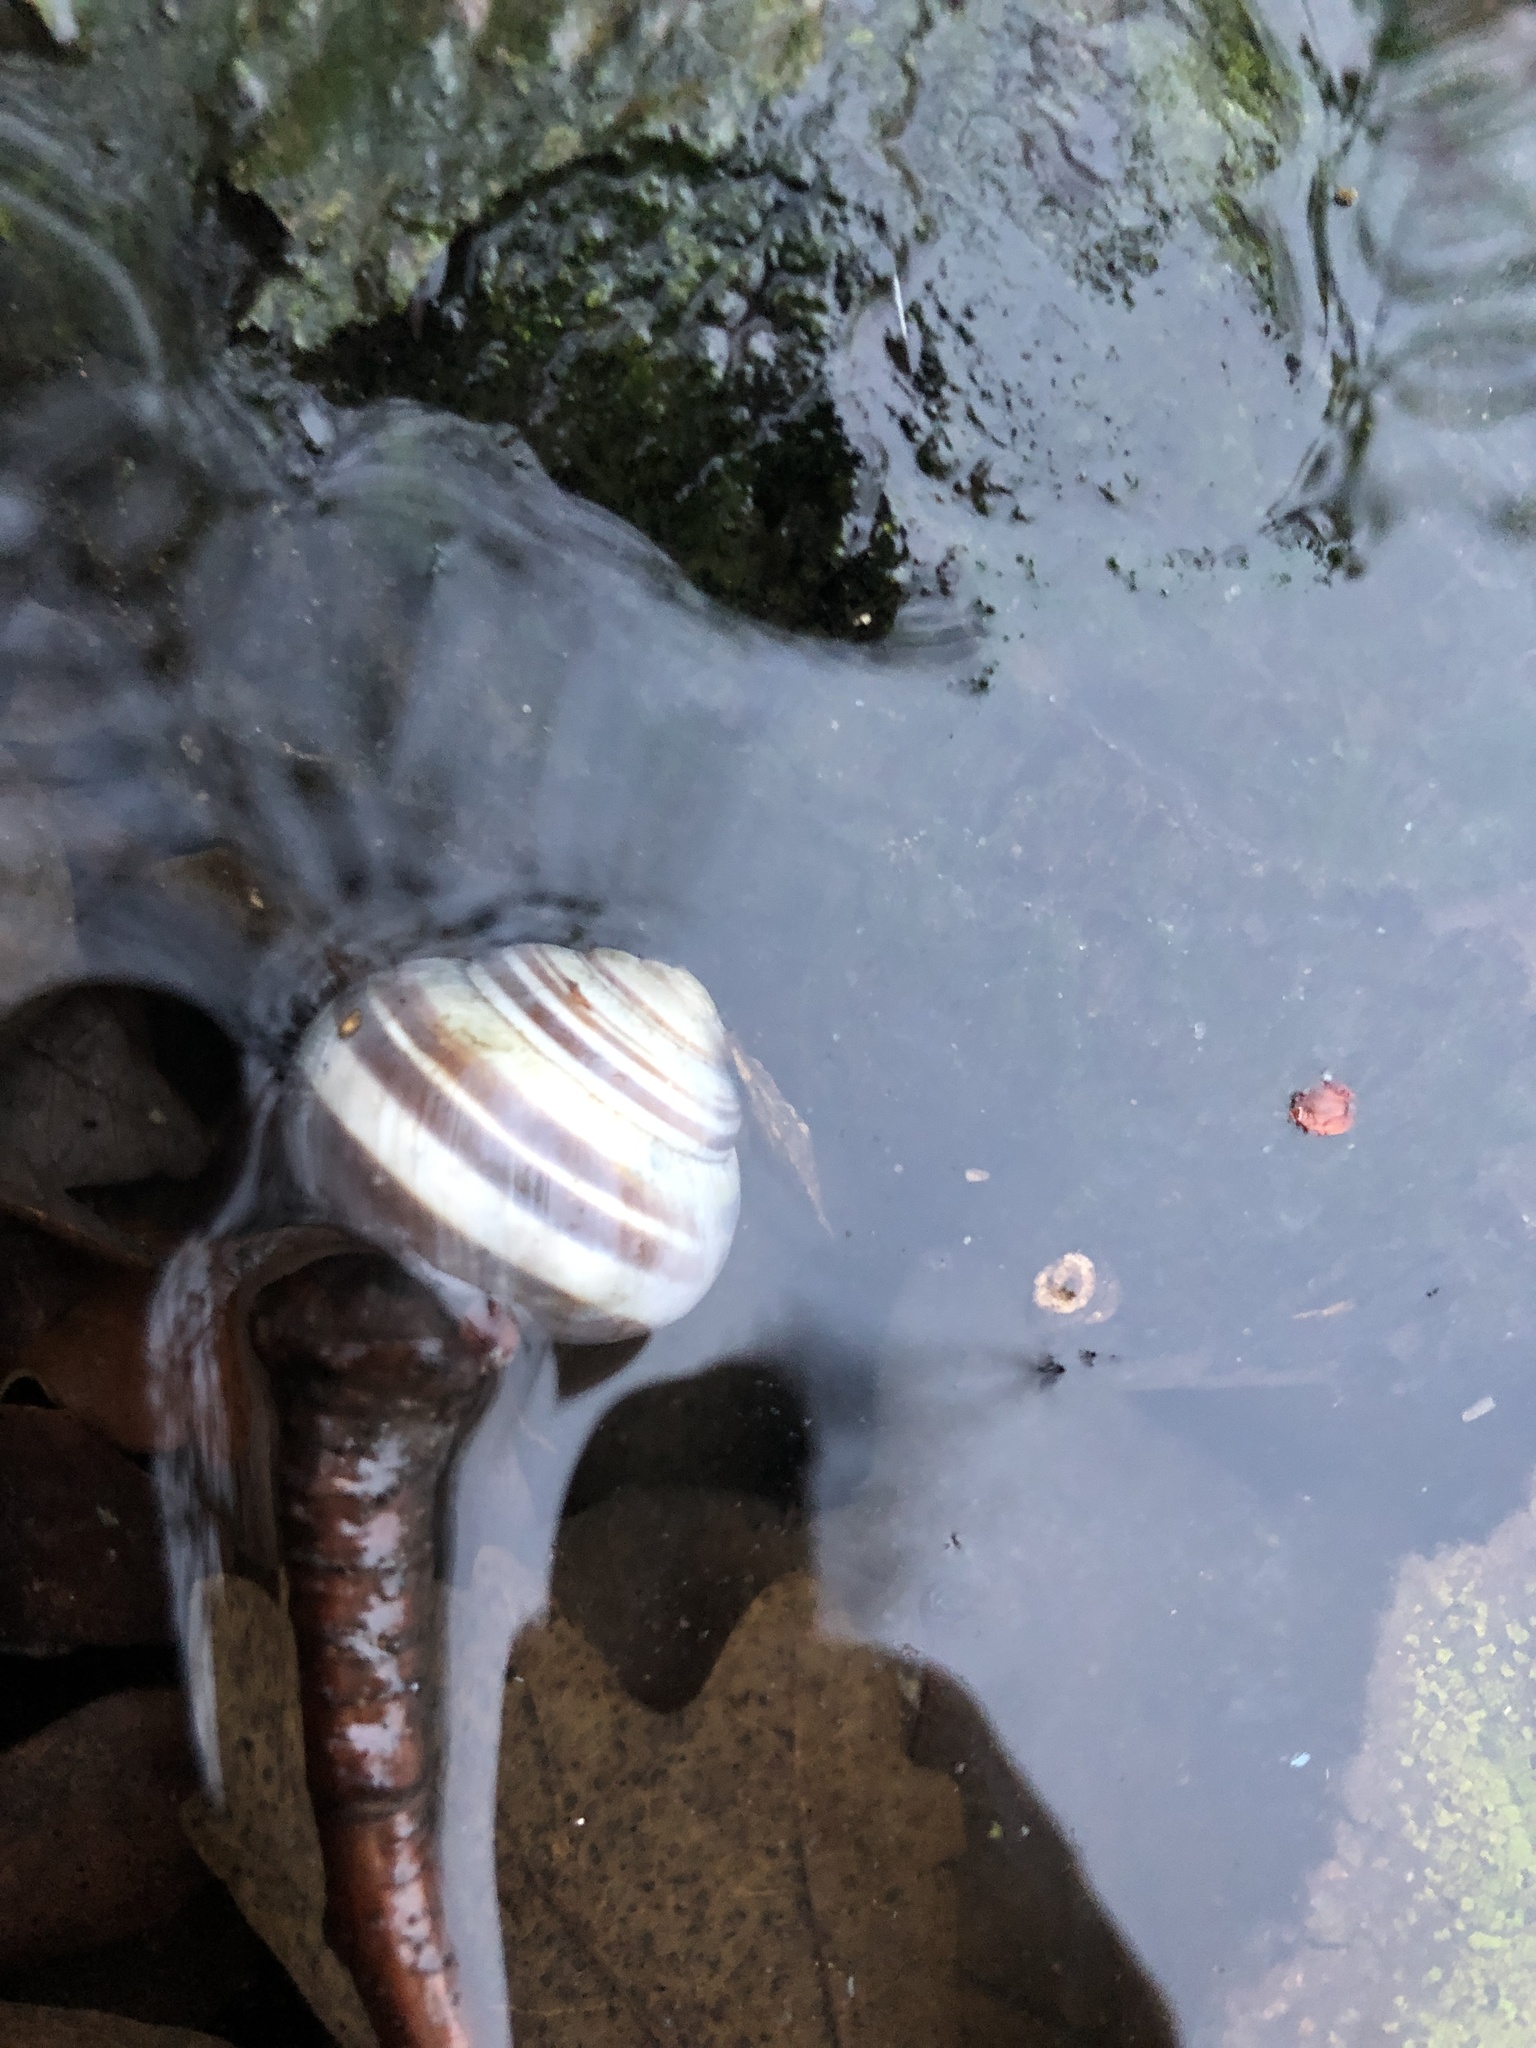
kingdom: Animalia
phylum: Mollusca
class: Gastropoda
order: Stylommatophora
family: Helicidae
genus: Cepaea
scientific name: Cepaea
